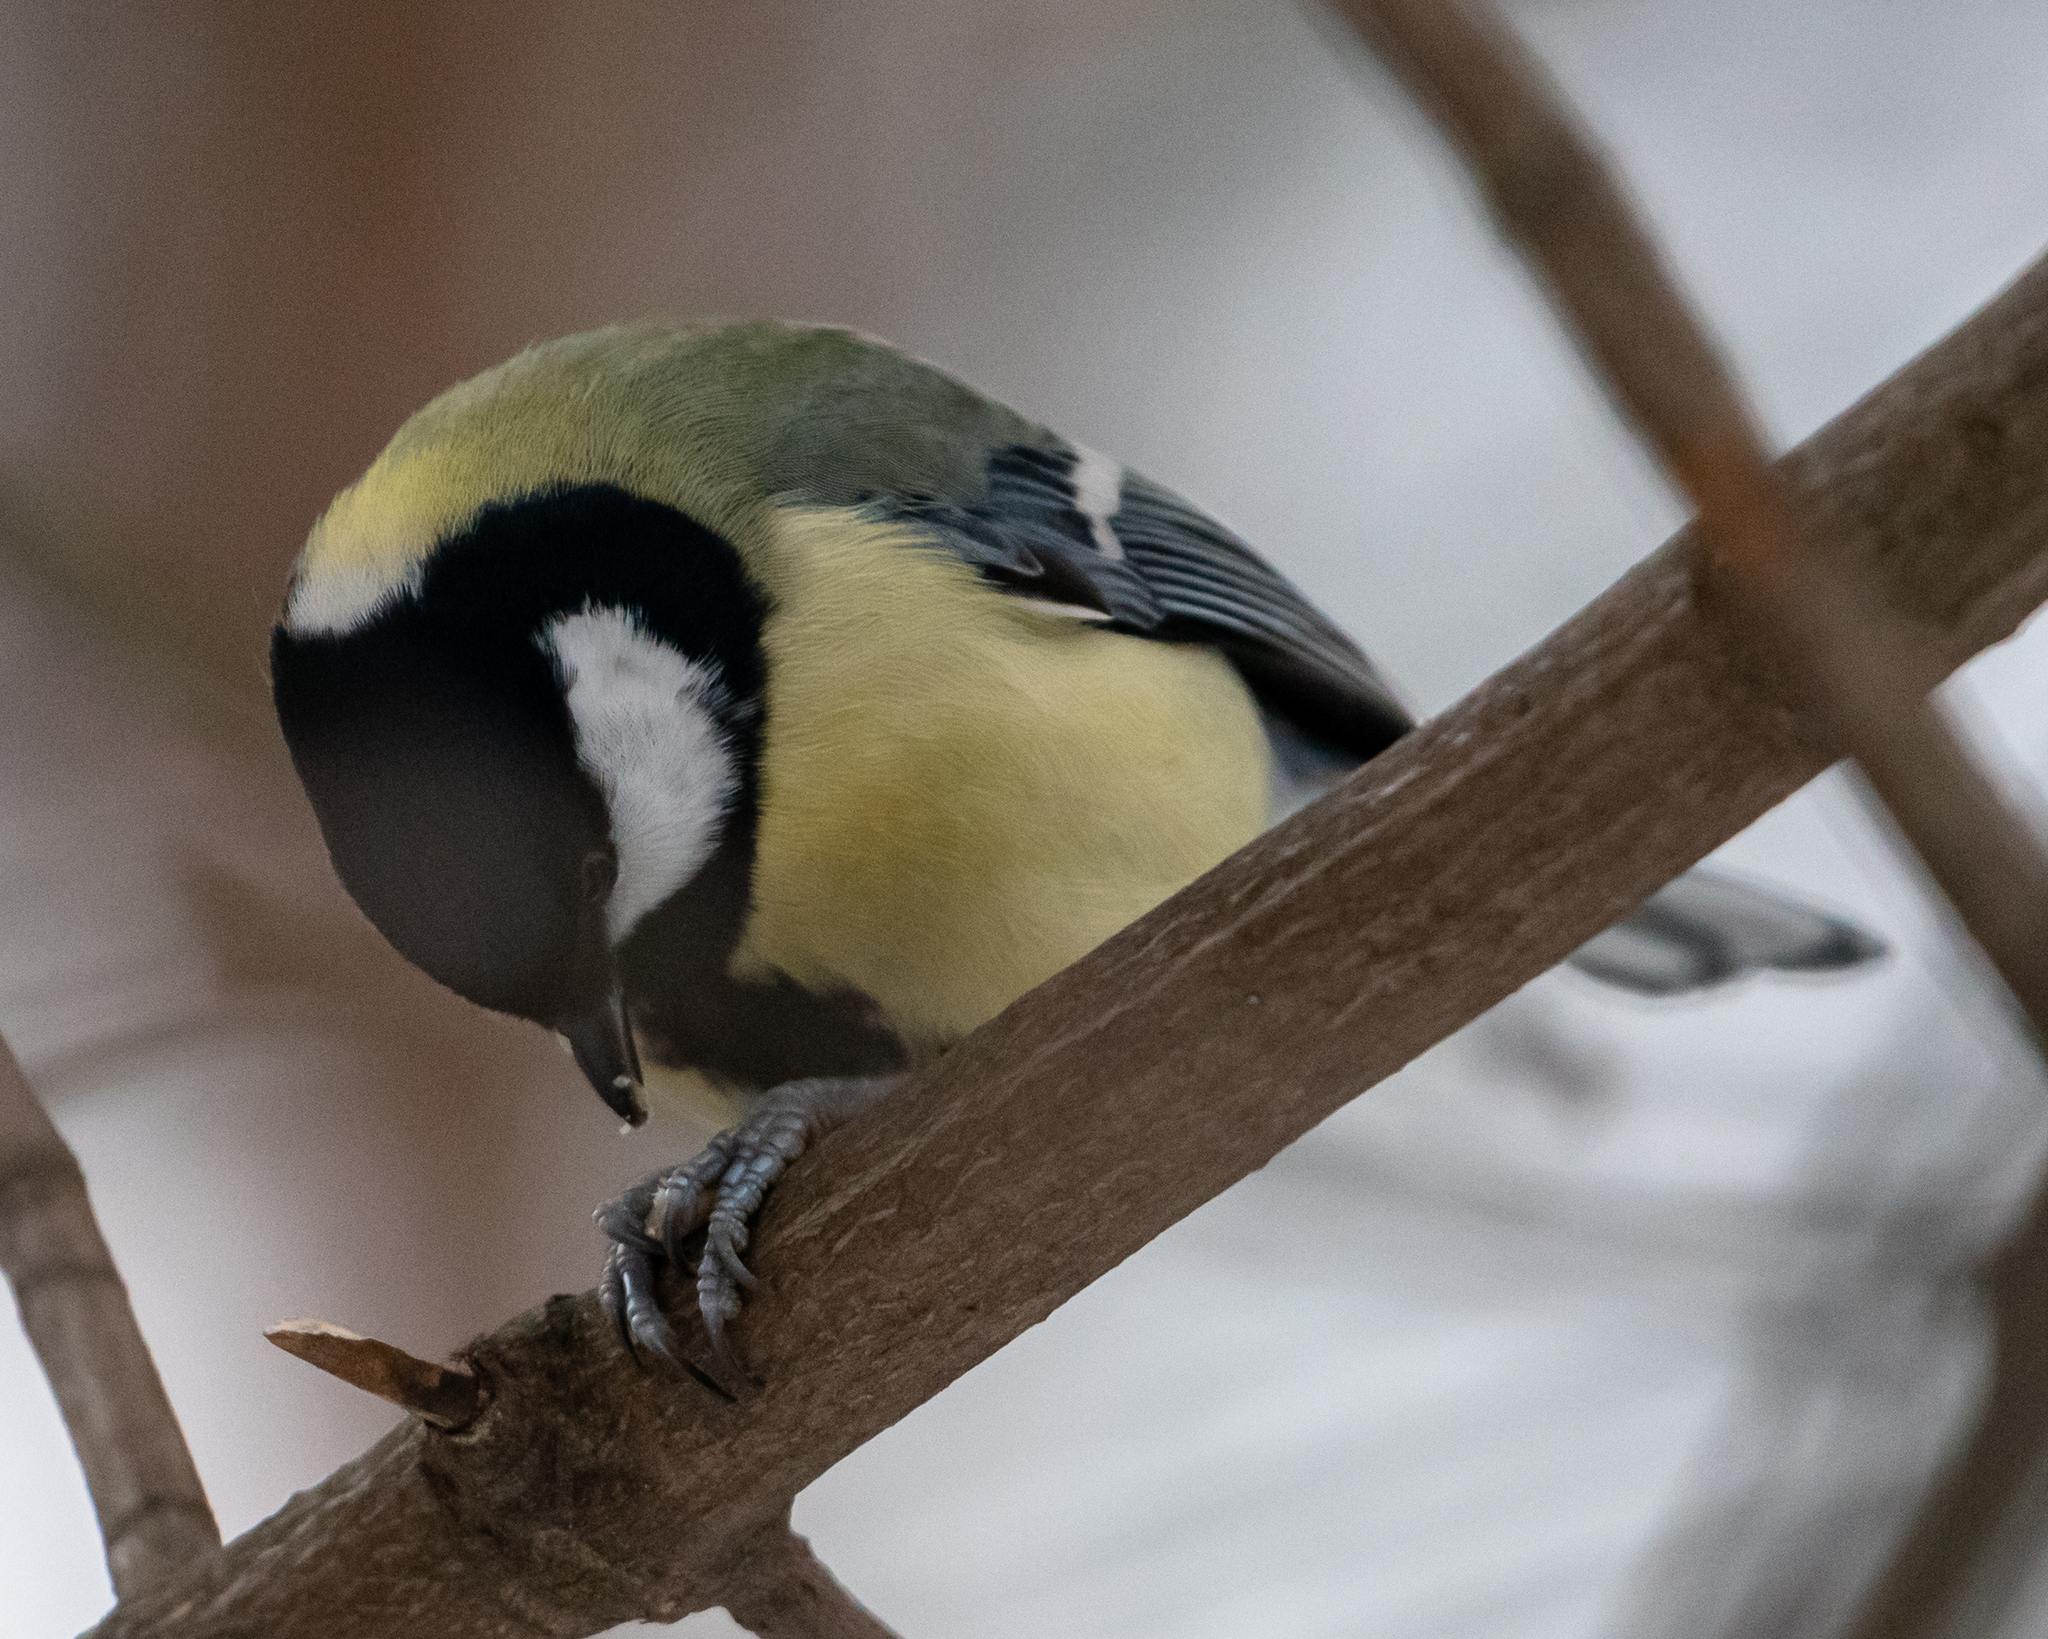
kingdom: Animalia
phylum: Chordata
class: Aves
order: Passeriformes
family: Paridae
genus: Parus
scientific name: Parus major
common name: Great tit
